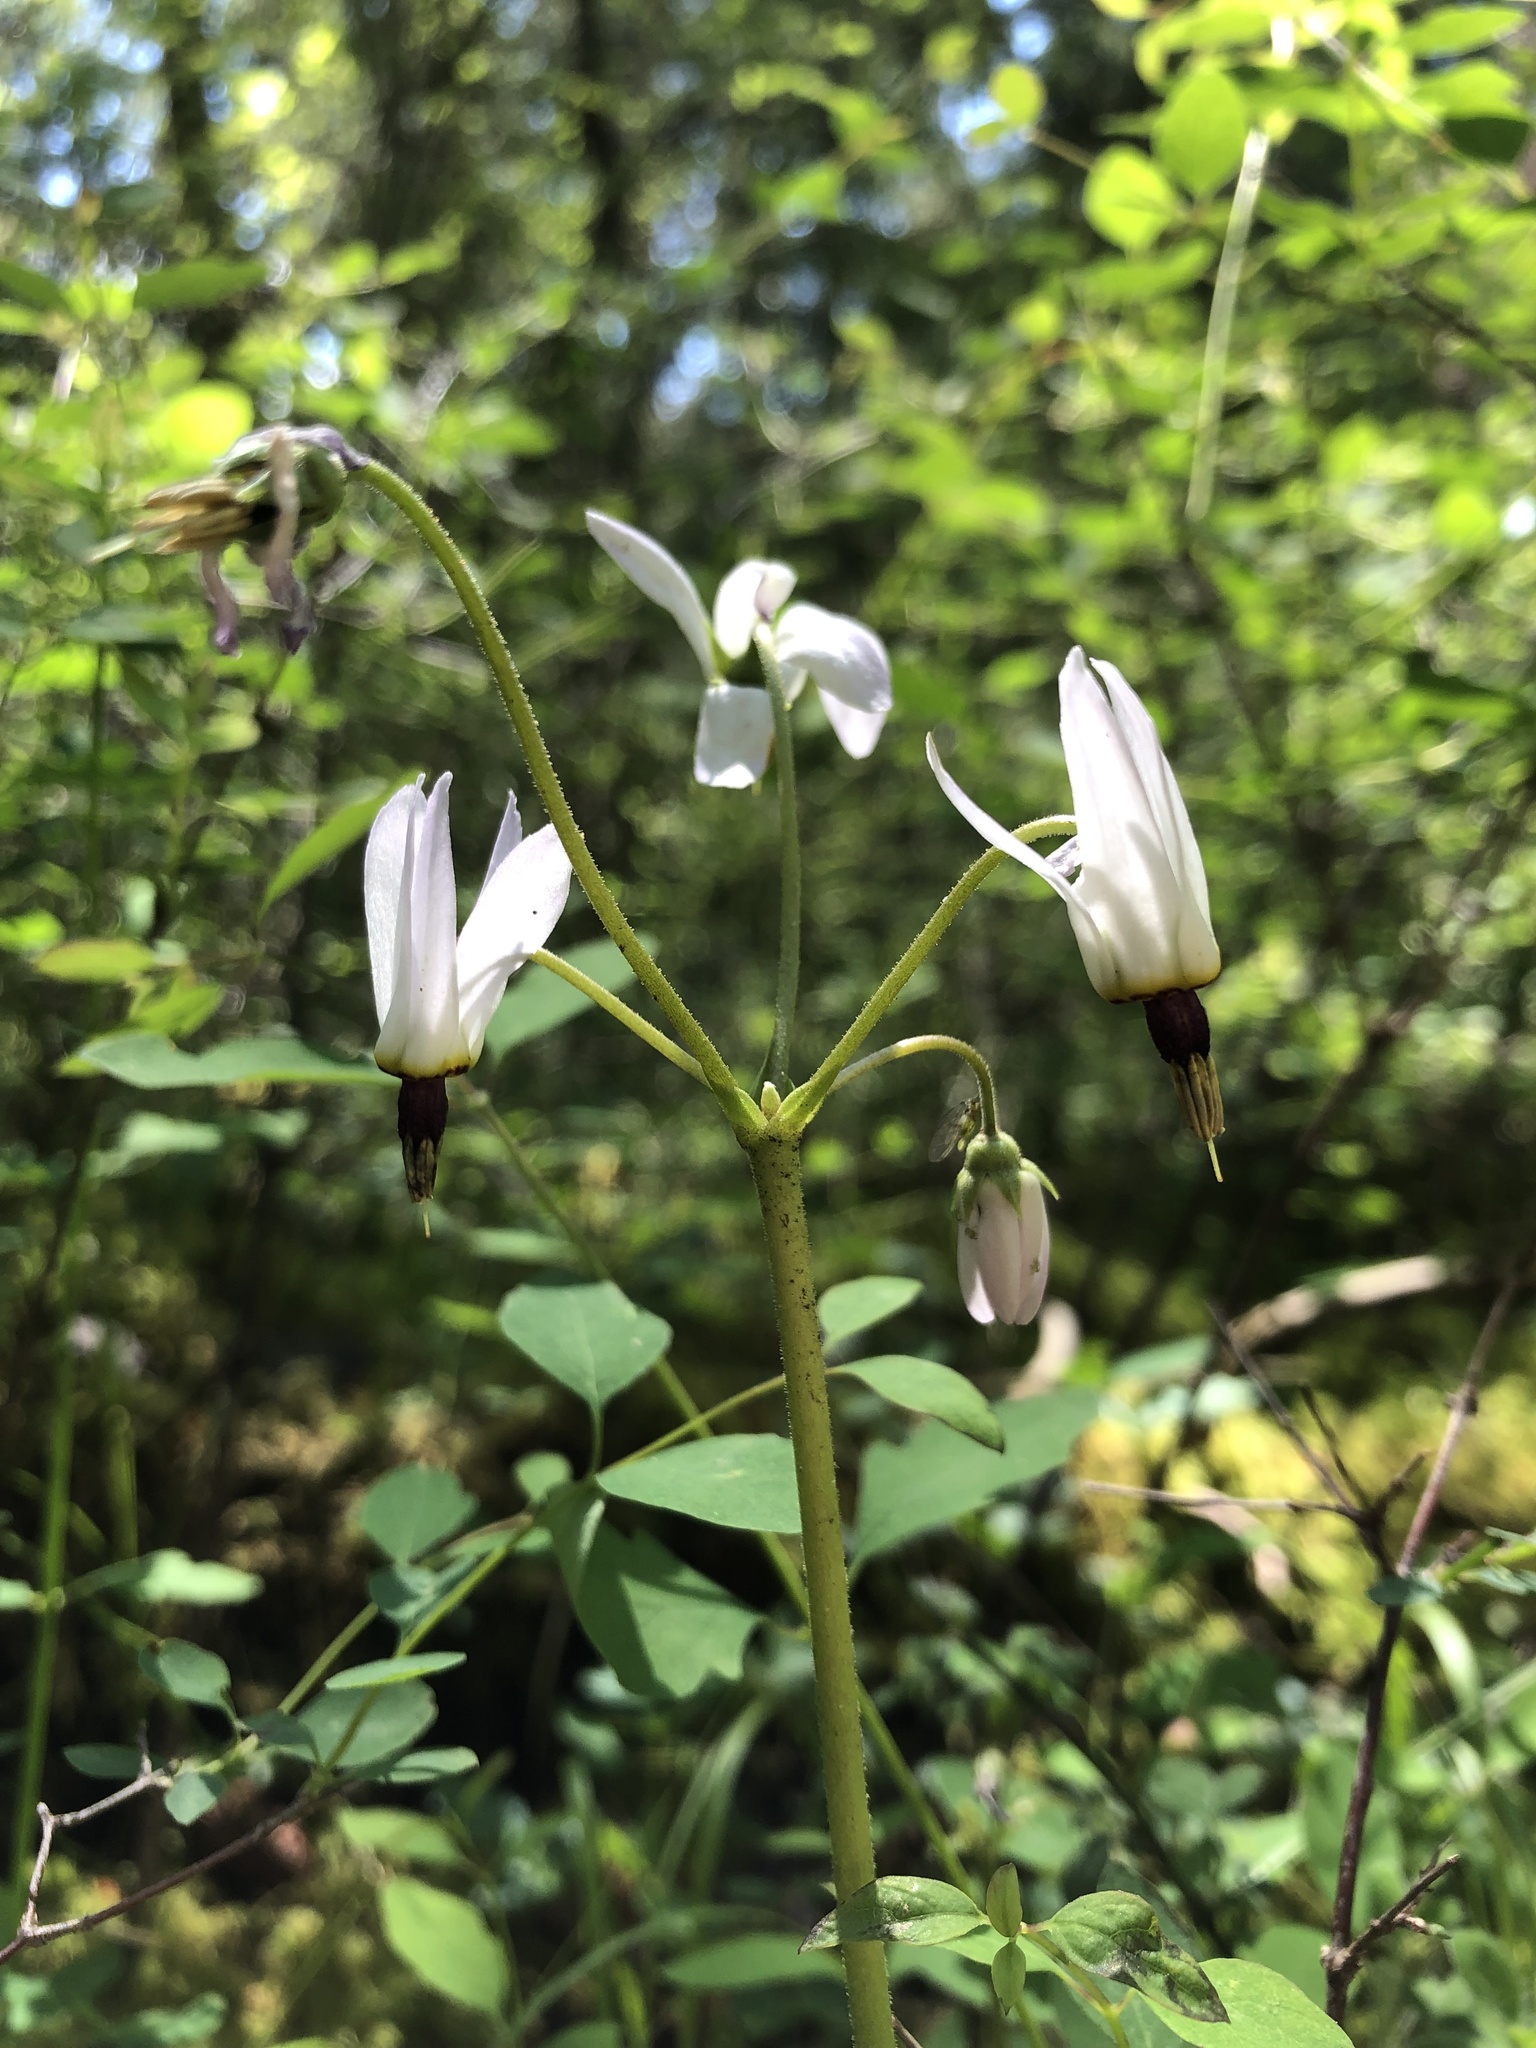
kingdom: Plantae
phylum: Tracheophyta
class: Magnoliopsida
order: Ericales
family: Primulaceae
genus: Dodecatheon
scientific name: Dodecatheon hendersonii
